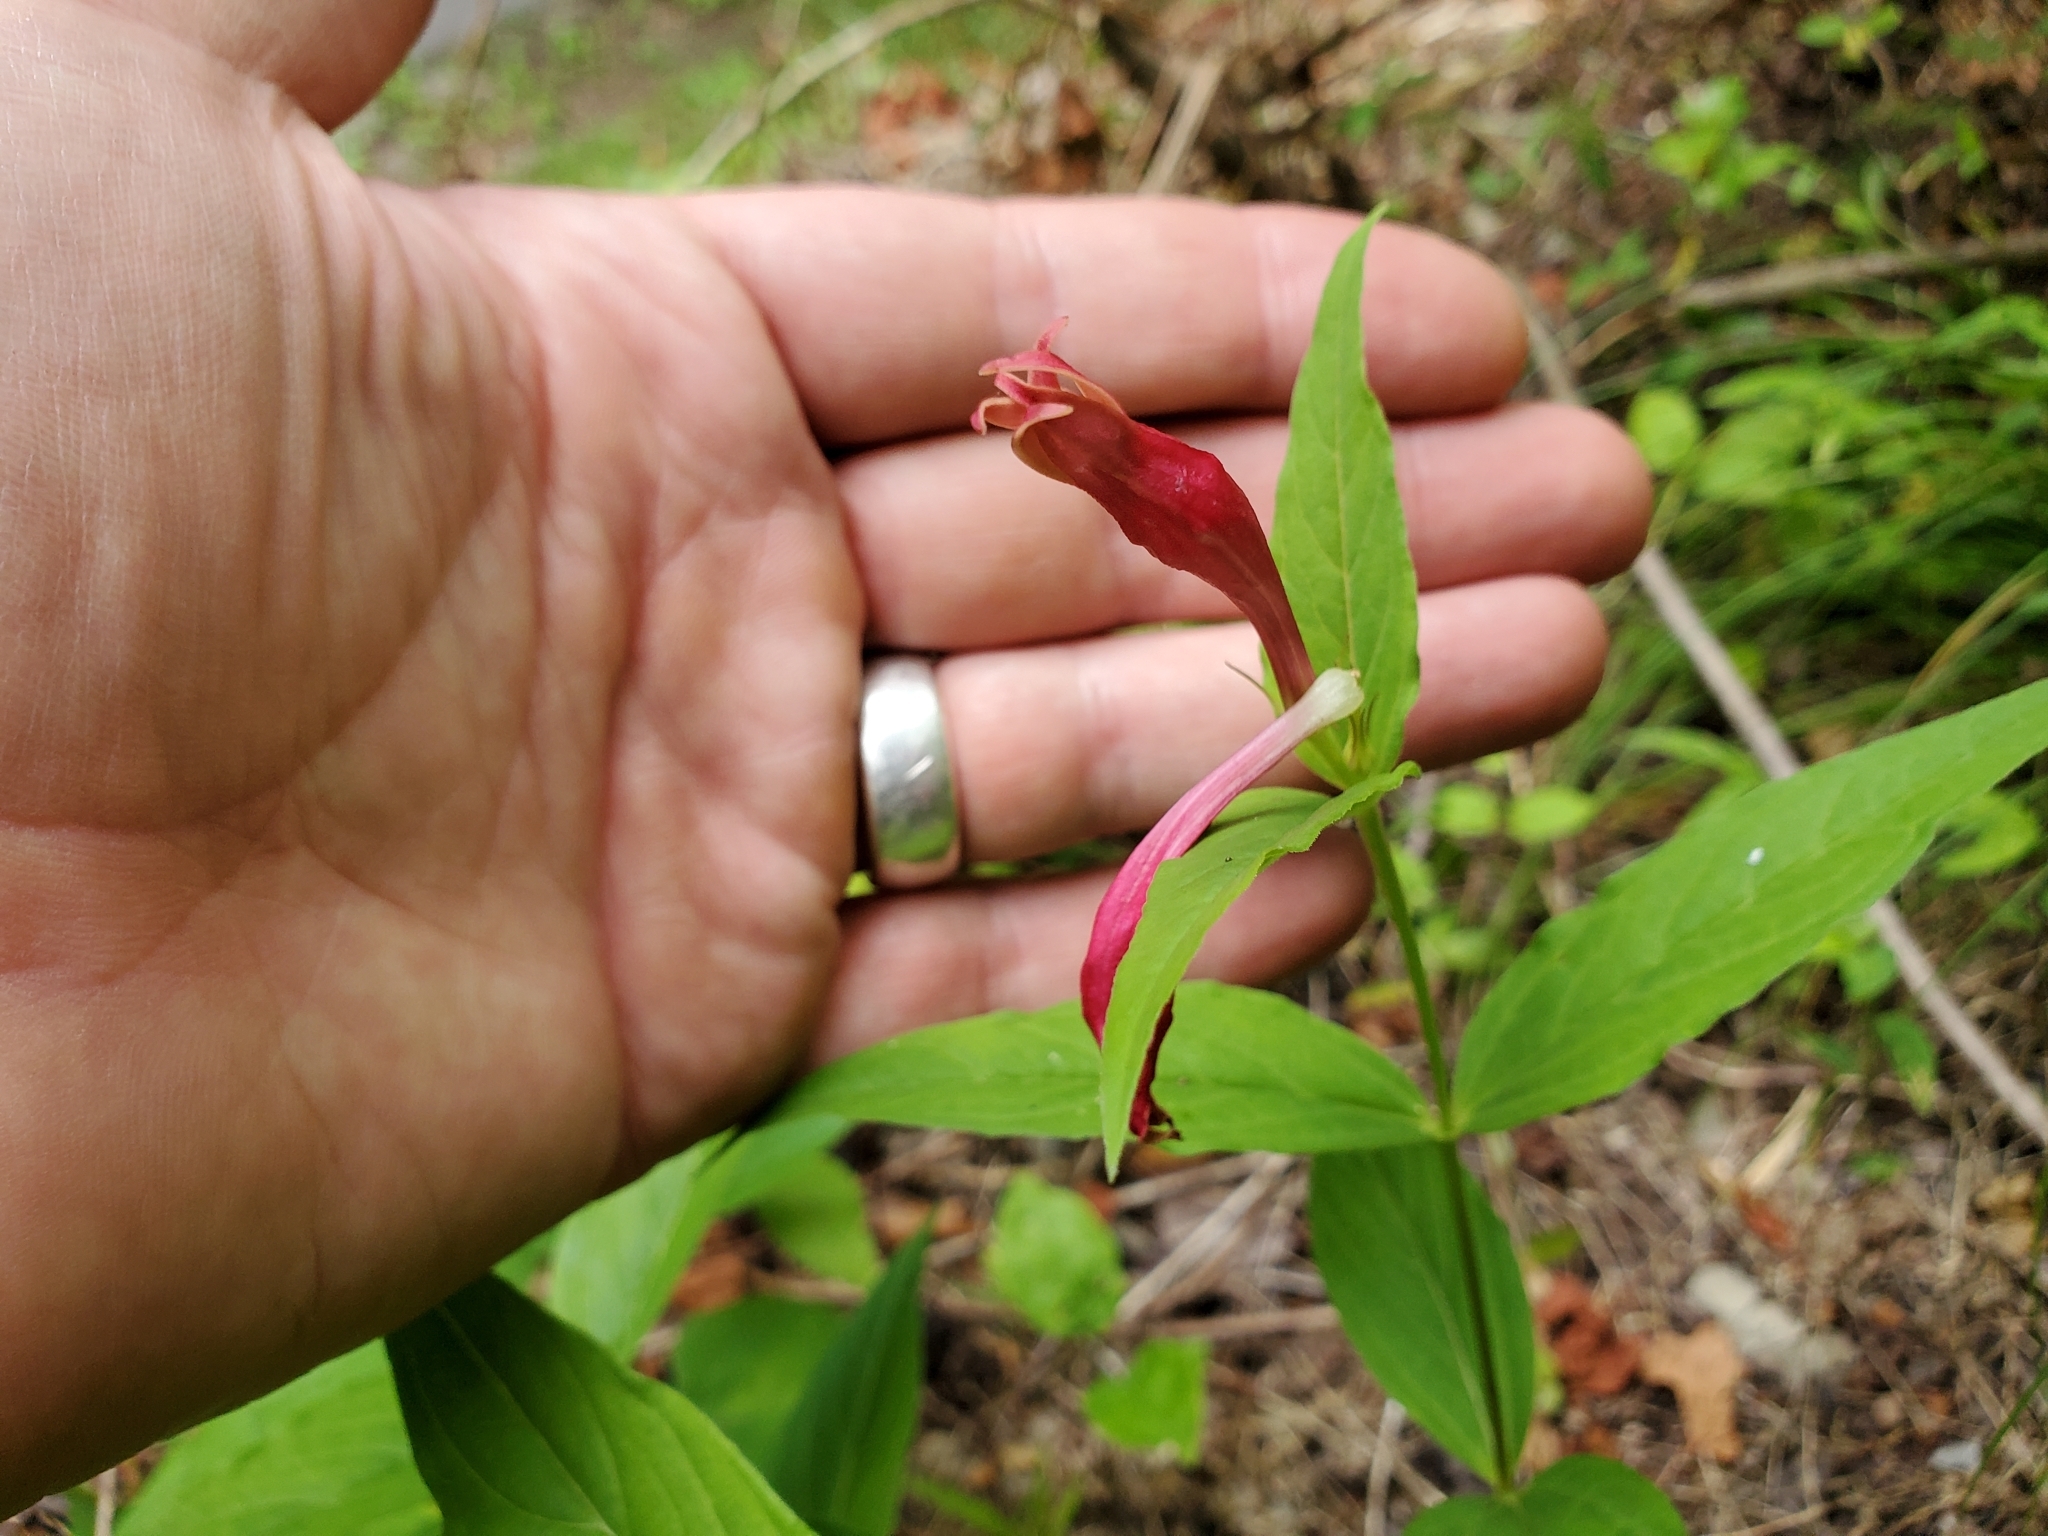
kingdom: Plantae
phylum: Tracheophyta
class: Magnoliopsida
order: Gentianales
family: Loganiaceae
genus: Spigelia
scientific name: Spigelia marilandica
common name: Indian-pink
